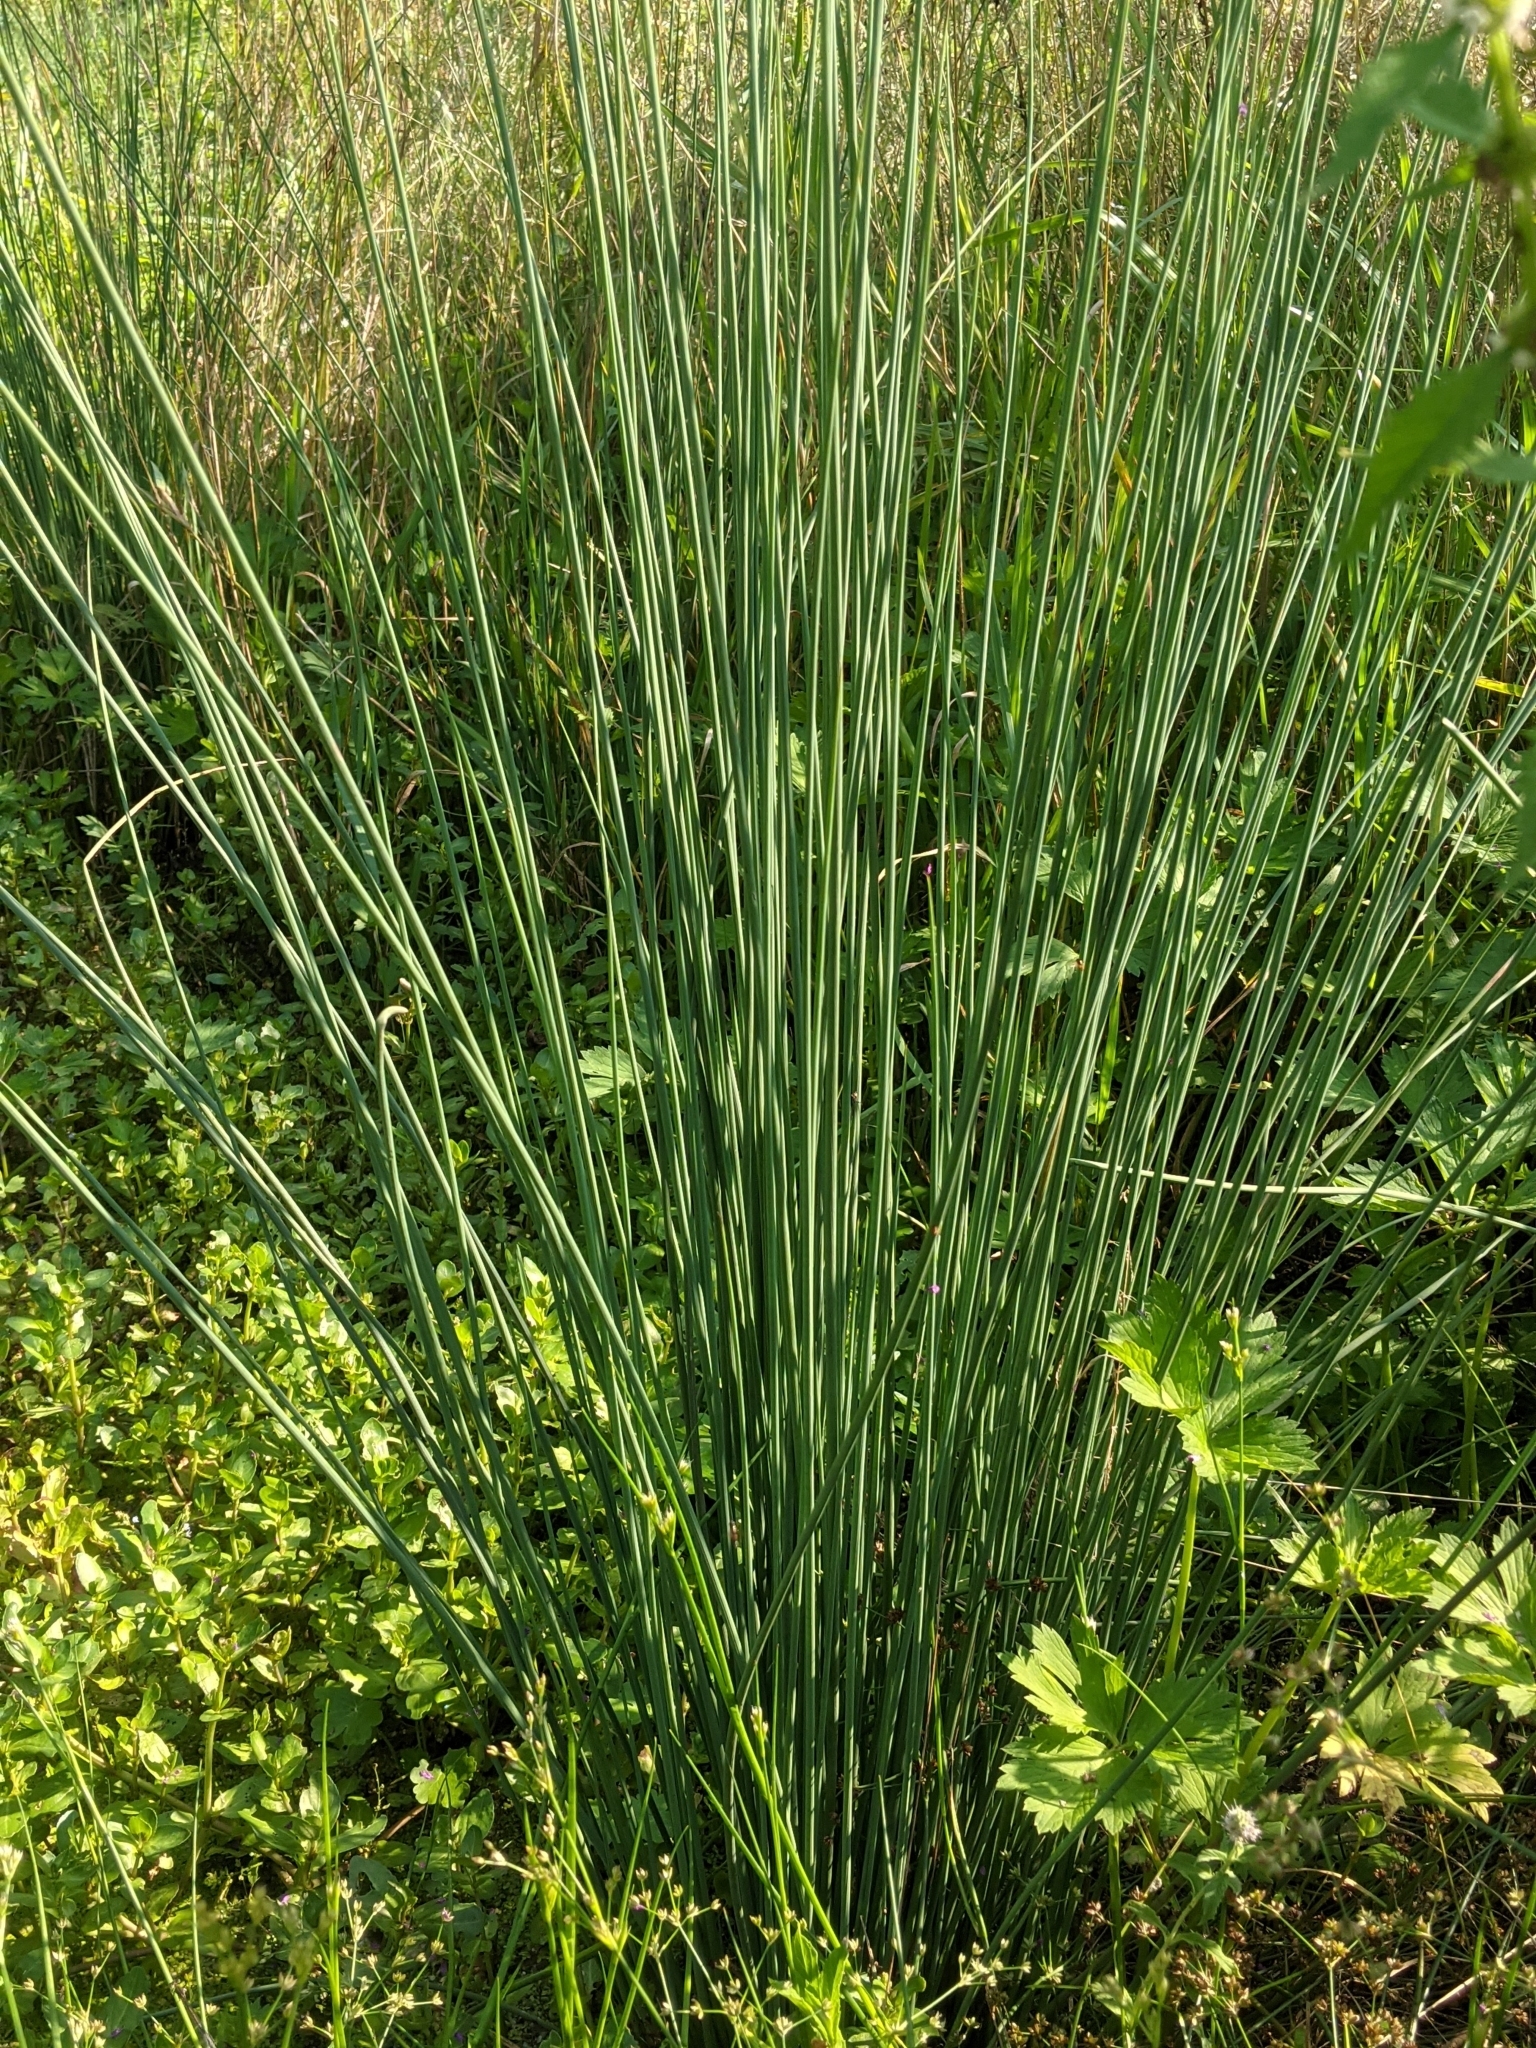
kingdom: Plantae
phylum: Tracheophyta
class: Liliopsida
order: Poales
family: Juncaceae
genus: Juncus
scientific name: Juncus effusus
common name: Soft rush
